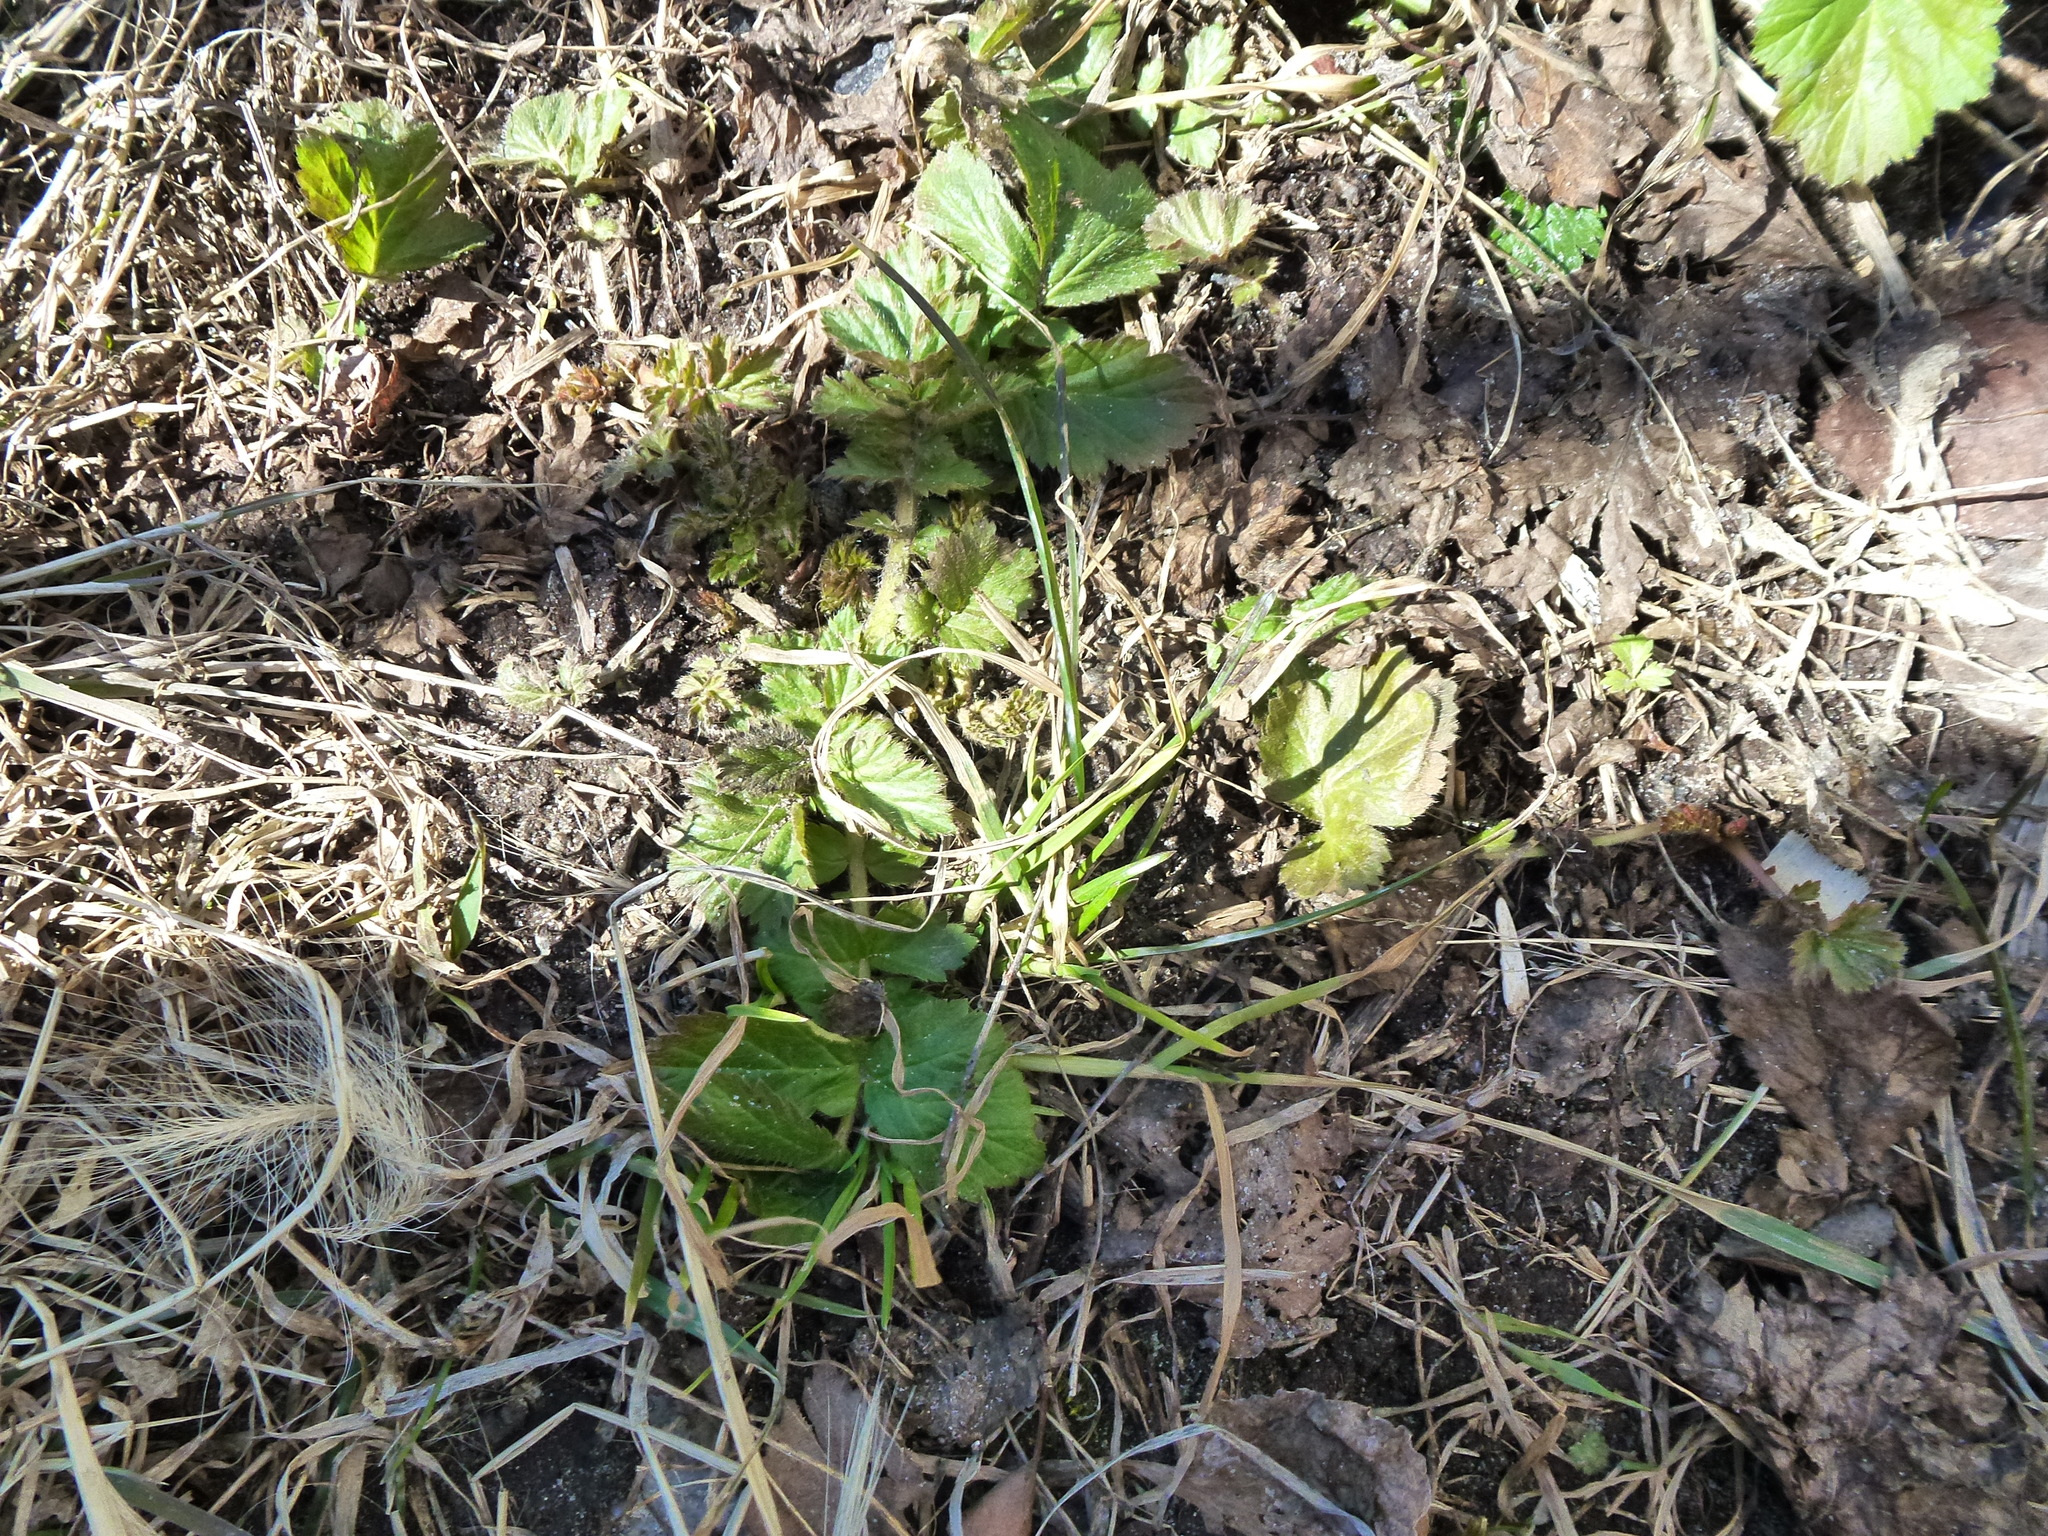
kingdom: Plantae
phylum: Tracheophyta
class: Magnoliopsida
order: Rosales
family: Rosaceae
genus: Geum
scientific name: Geum aleppicum
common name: Yellow avens
